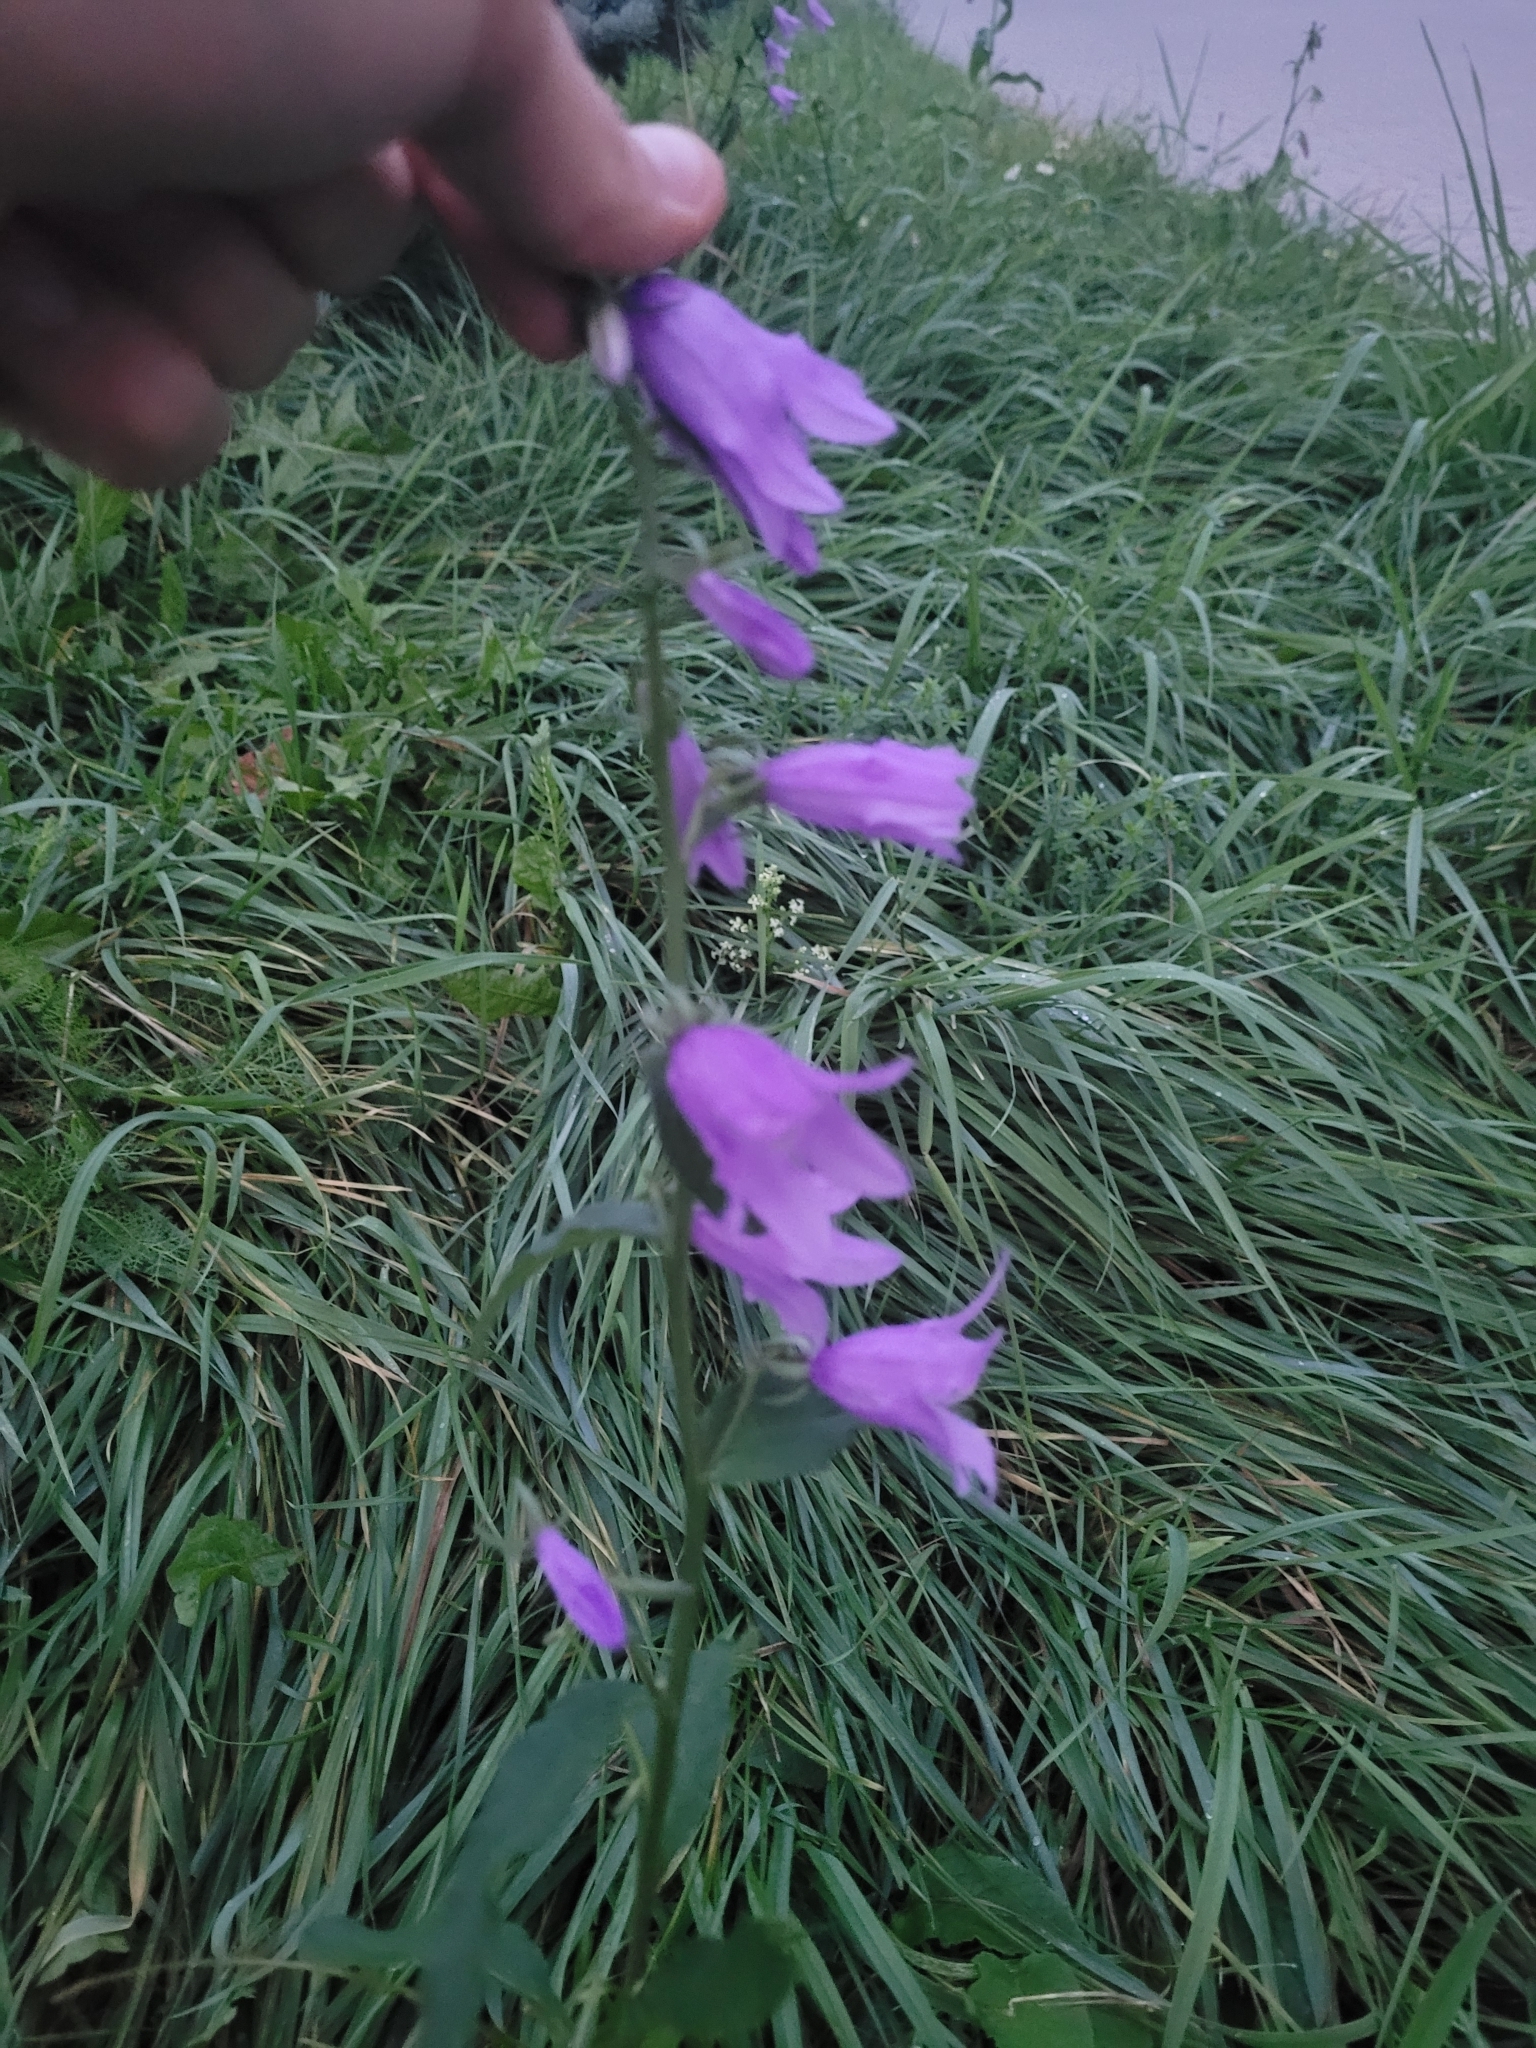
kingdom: Plantae
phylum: Tracheophyta
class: Magnoliopsida
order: Asterales
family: Campanulaceae
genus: Campanula
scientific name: Campanula rapunculoides
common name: Creeping bellflower
